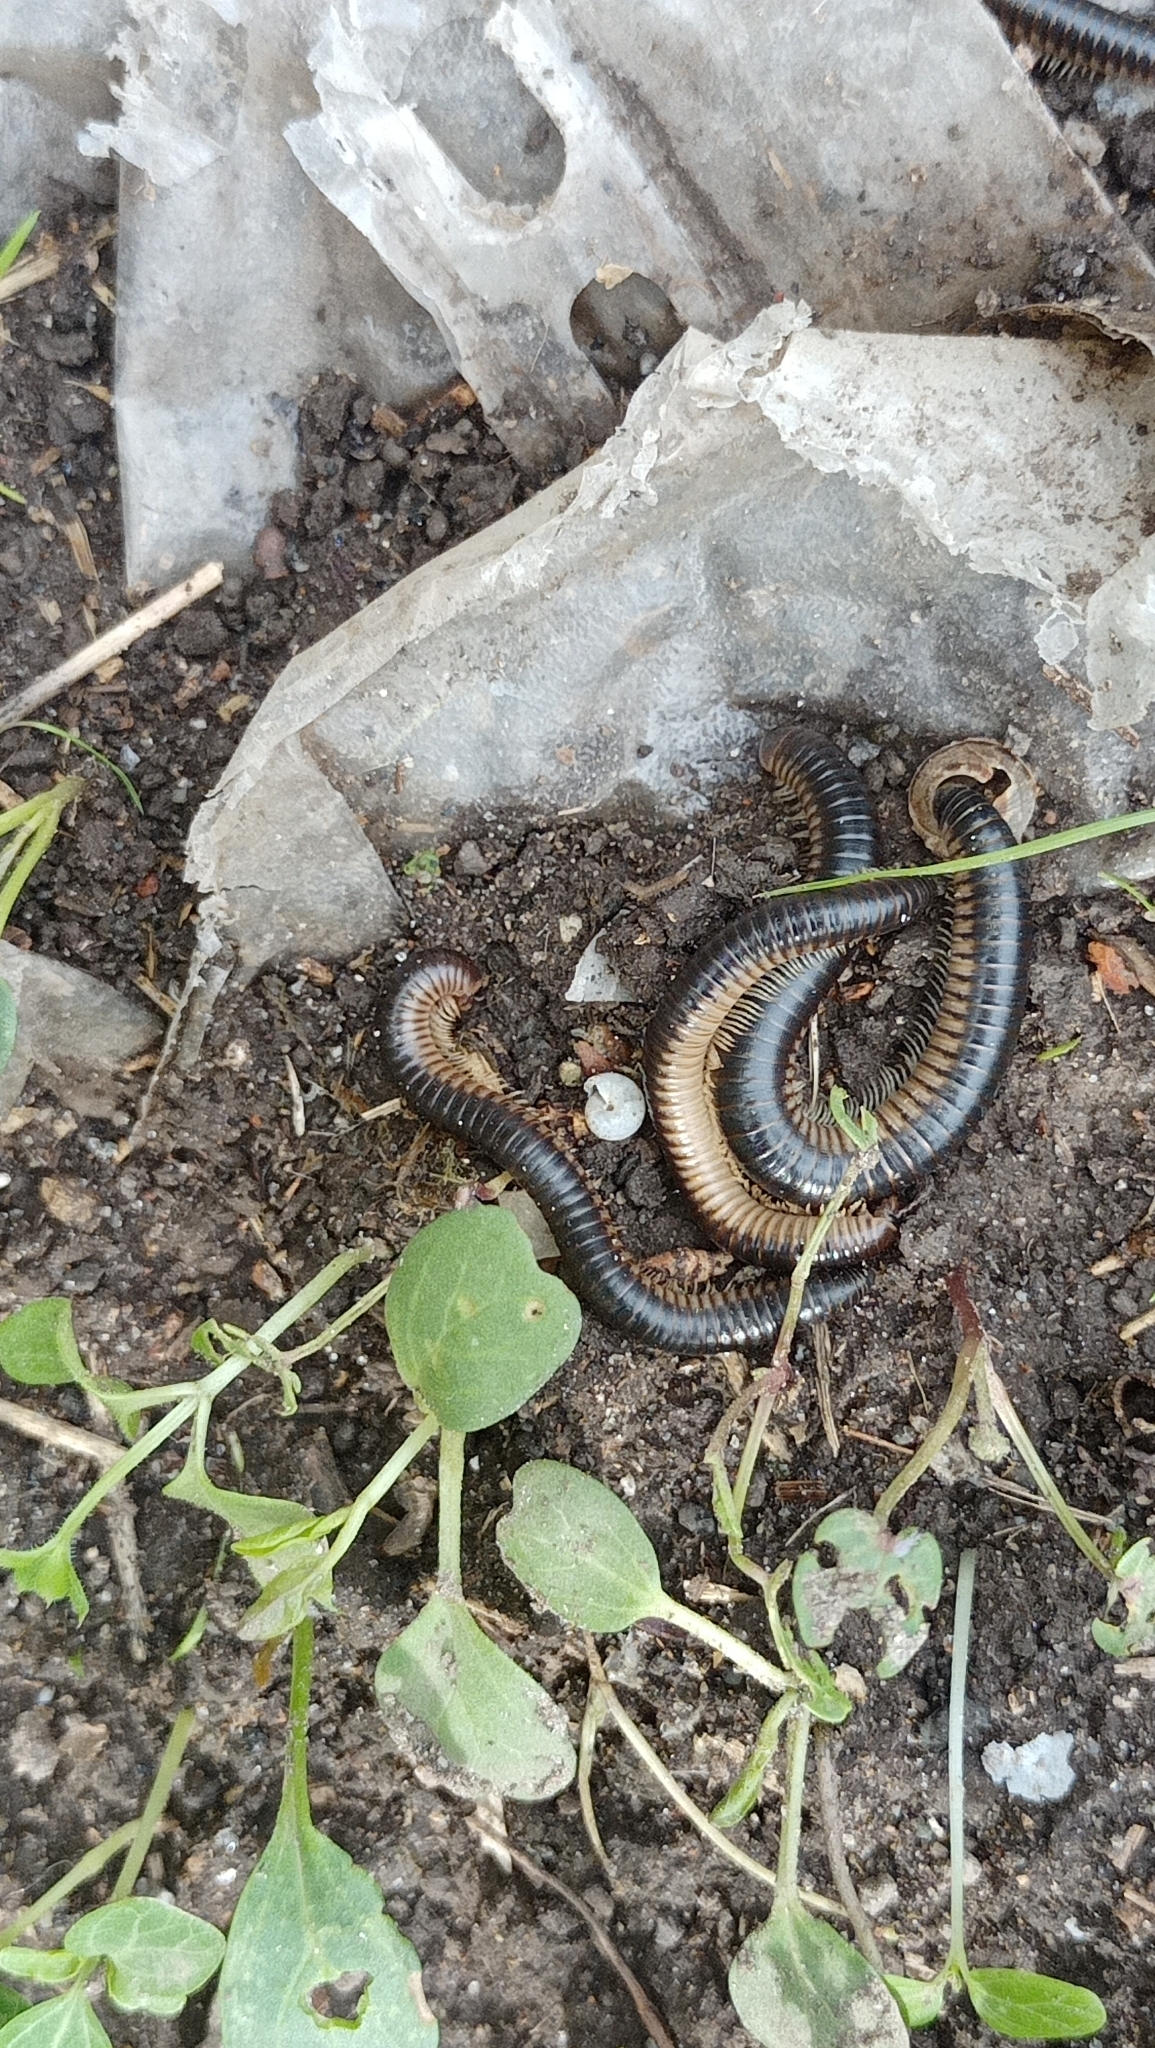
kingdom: Animalia
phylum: Arthropoda
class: Diplopoda
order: Julida
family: Julidae
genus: Pachyiulus
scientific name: Pachyiulus flavipes
